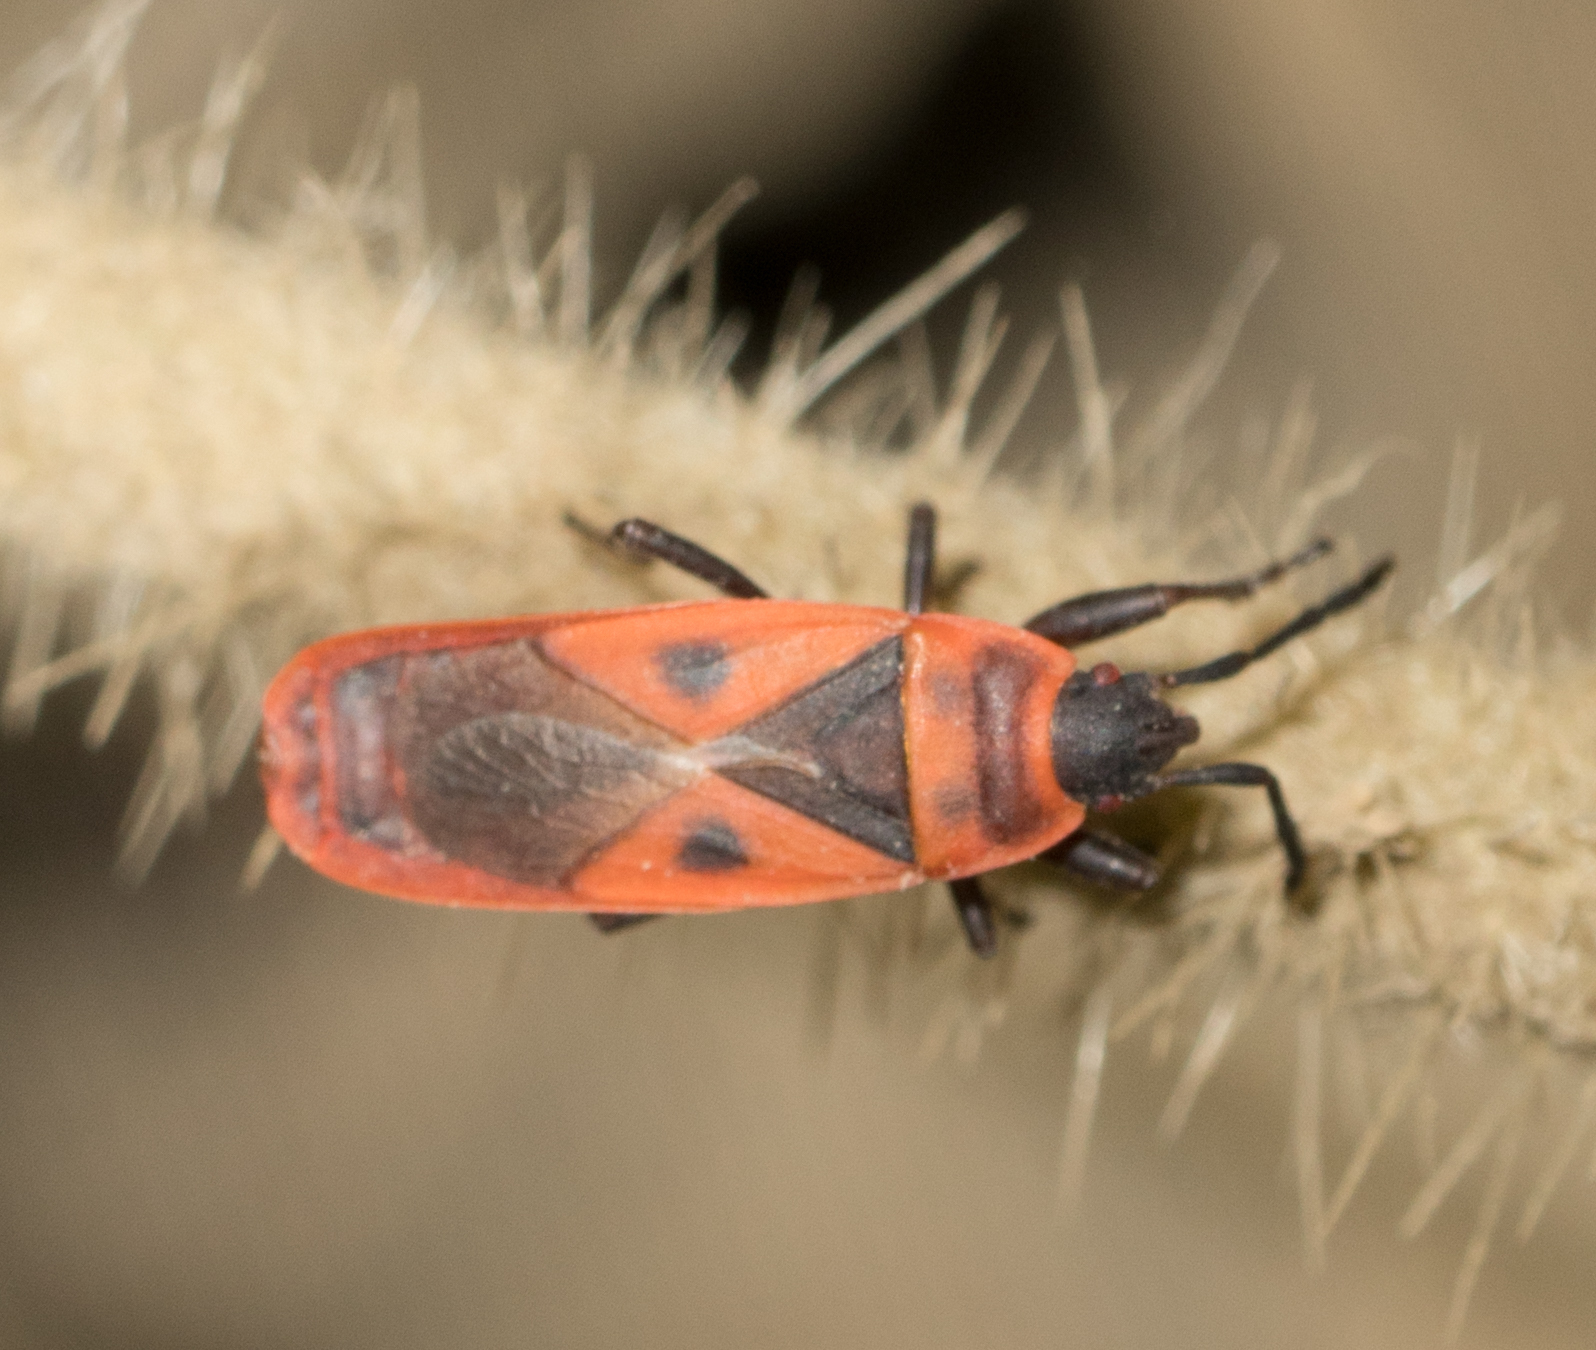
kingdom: Animalia
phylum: Arthropoda
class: Insecta
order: Hemiptera
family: Pyrrhocoridae
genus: Scantius
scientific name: Scantius aegyptius
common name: Red bug
